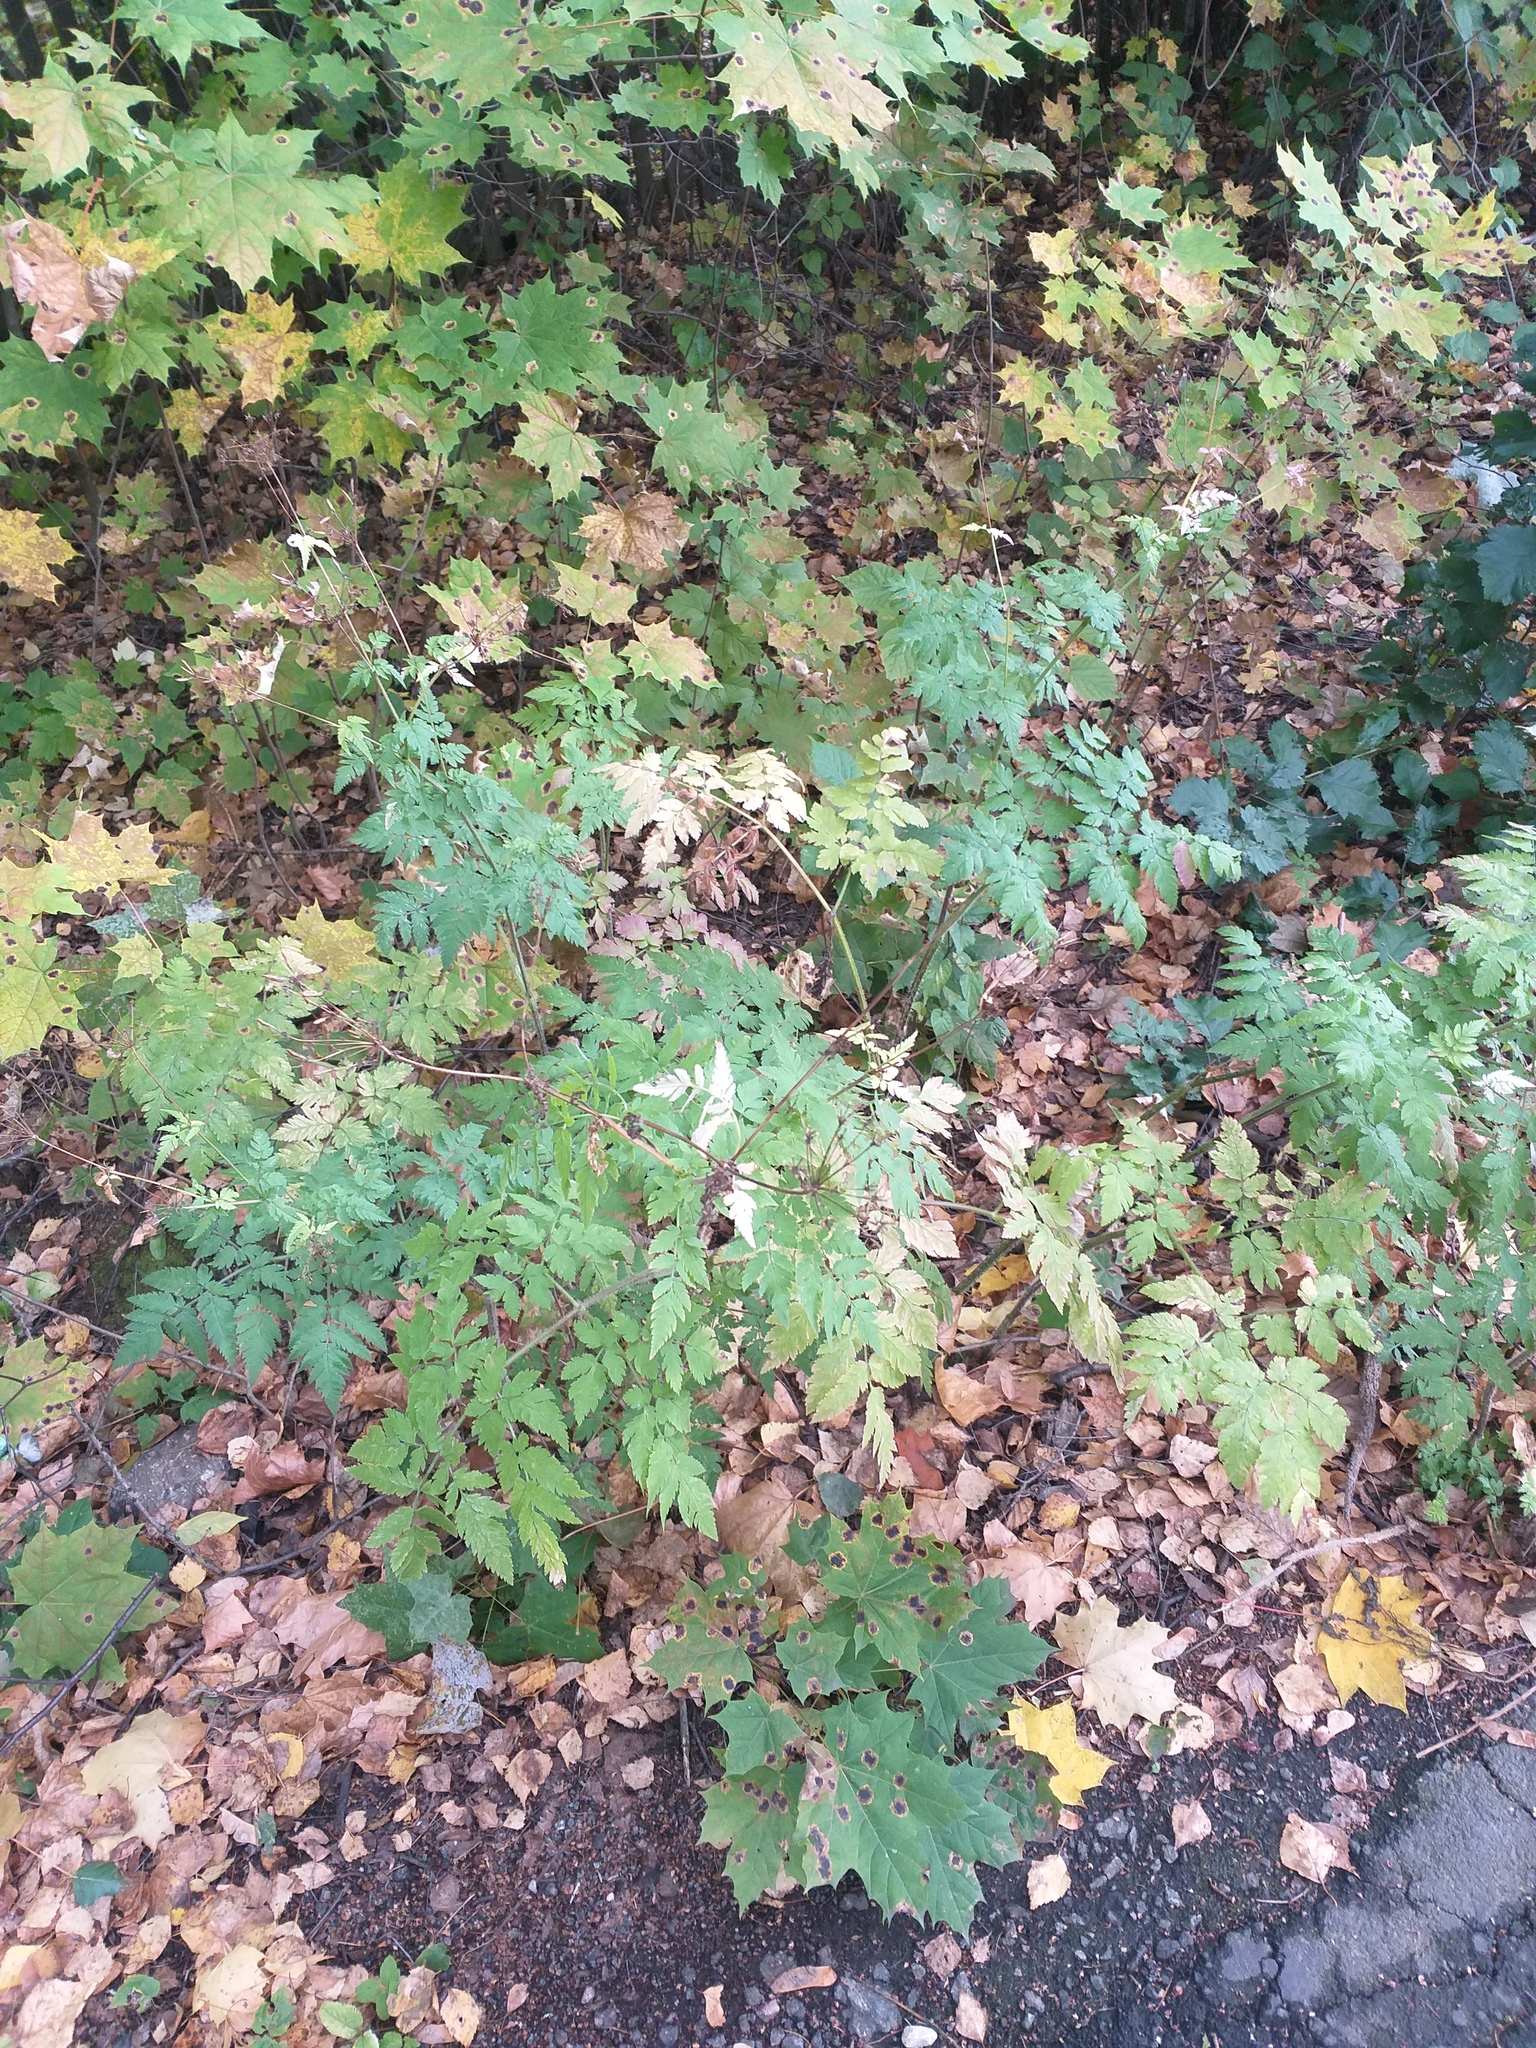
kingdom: Plantae
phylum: Tracheophyta
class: Magnoliopsida
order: Apiales
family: Apiaceae
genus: Chaerophyllum
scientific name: Chaerophyllum aureum
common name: Golden chervil
